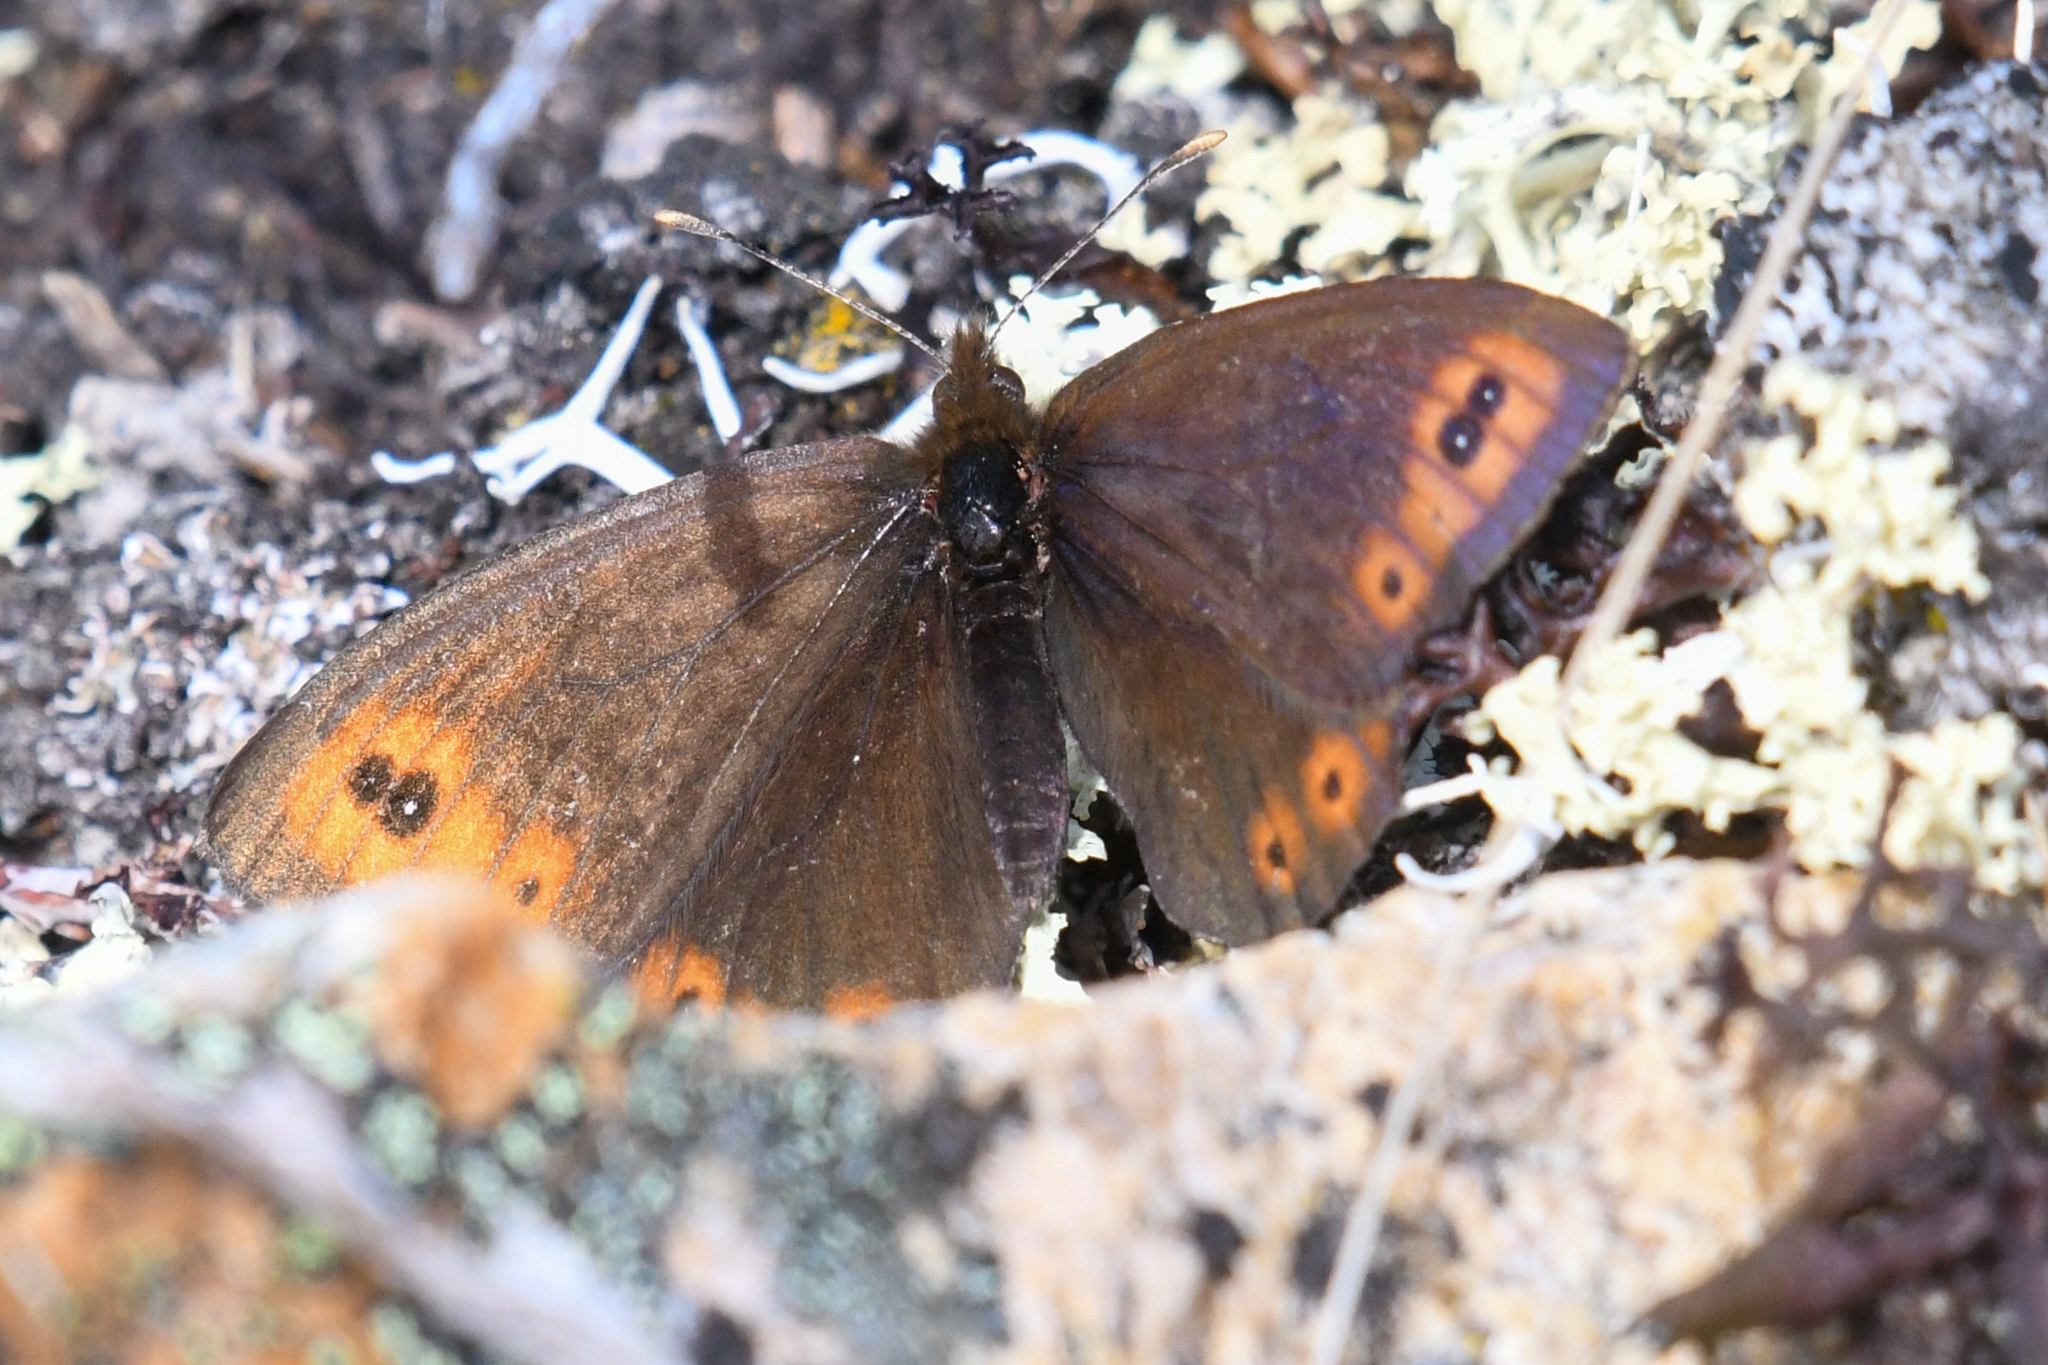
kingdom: Animalia
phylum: Arthropoda
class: Insecta
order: Lepidoptera
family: Nymphalidae
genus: Erebia
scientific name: Erebia epipsodea
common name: Common alpine
